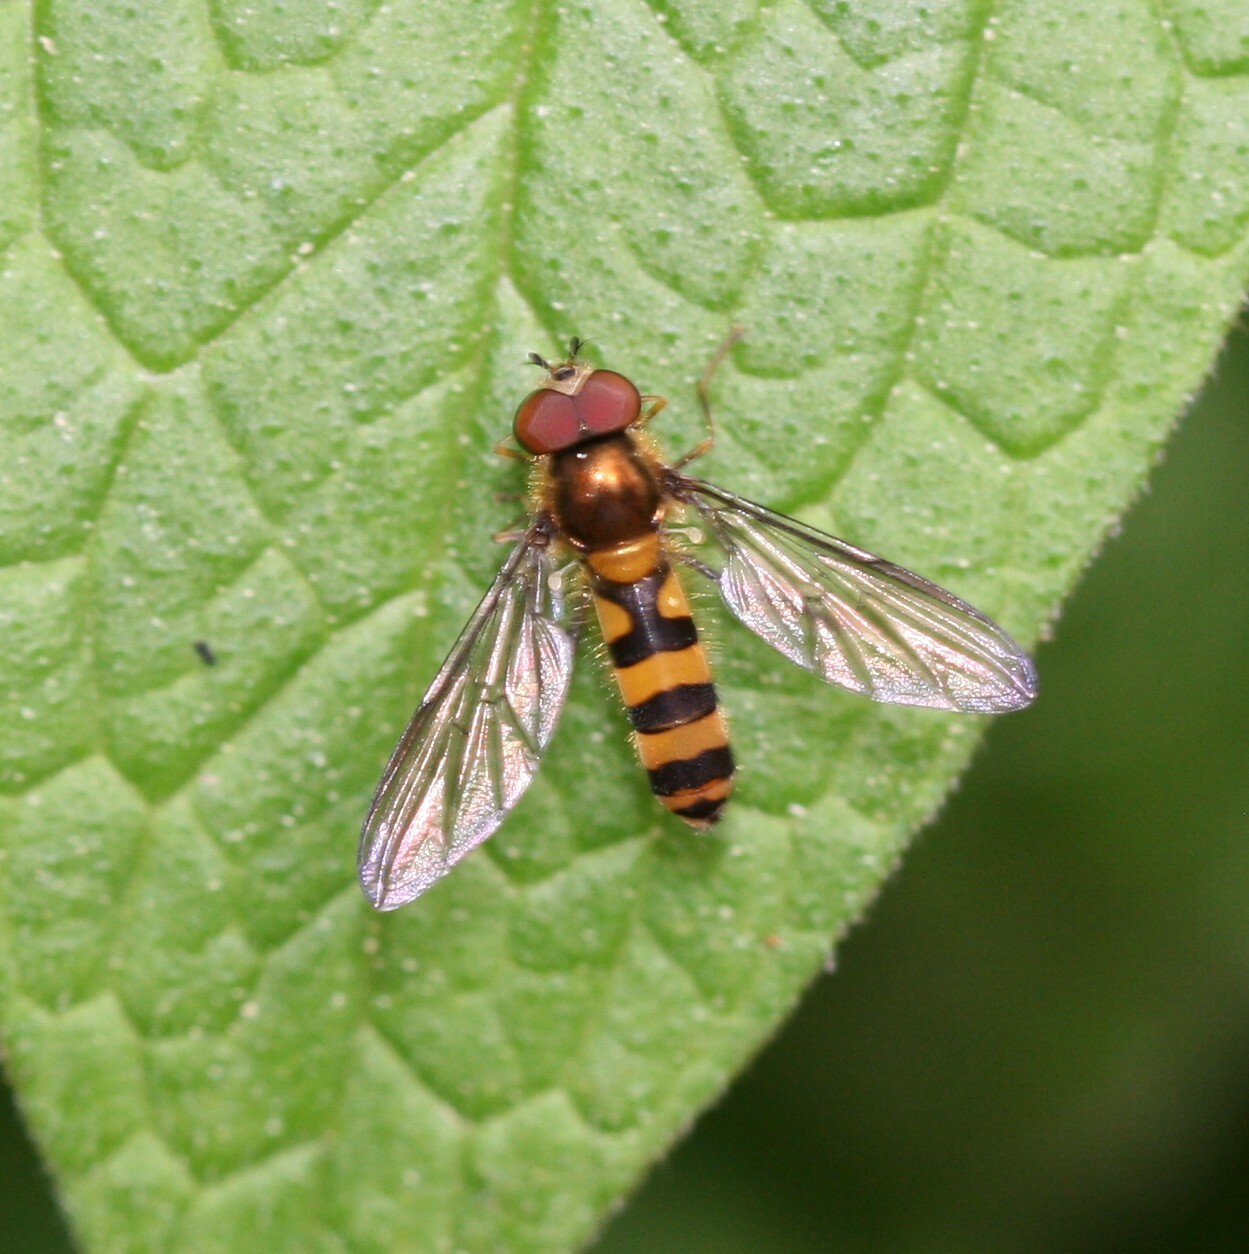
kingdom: Animalia
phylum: Arthropoda
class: Insecta
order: Diptera
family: Syrphidae
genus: Meliscaeva
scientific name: Meliscaeva cinctella
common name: American thintail fly
